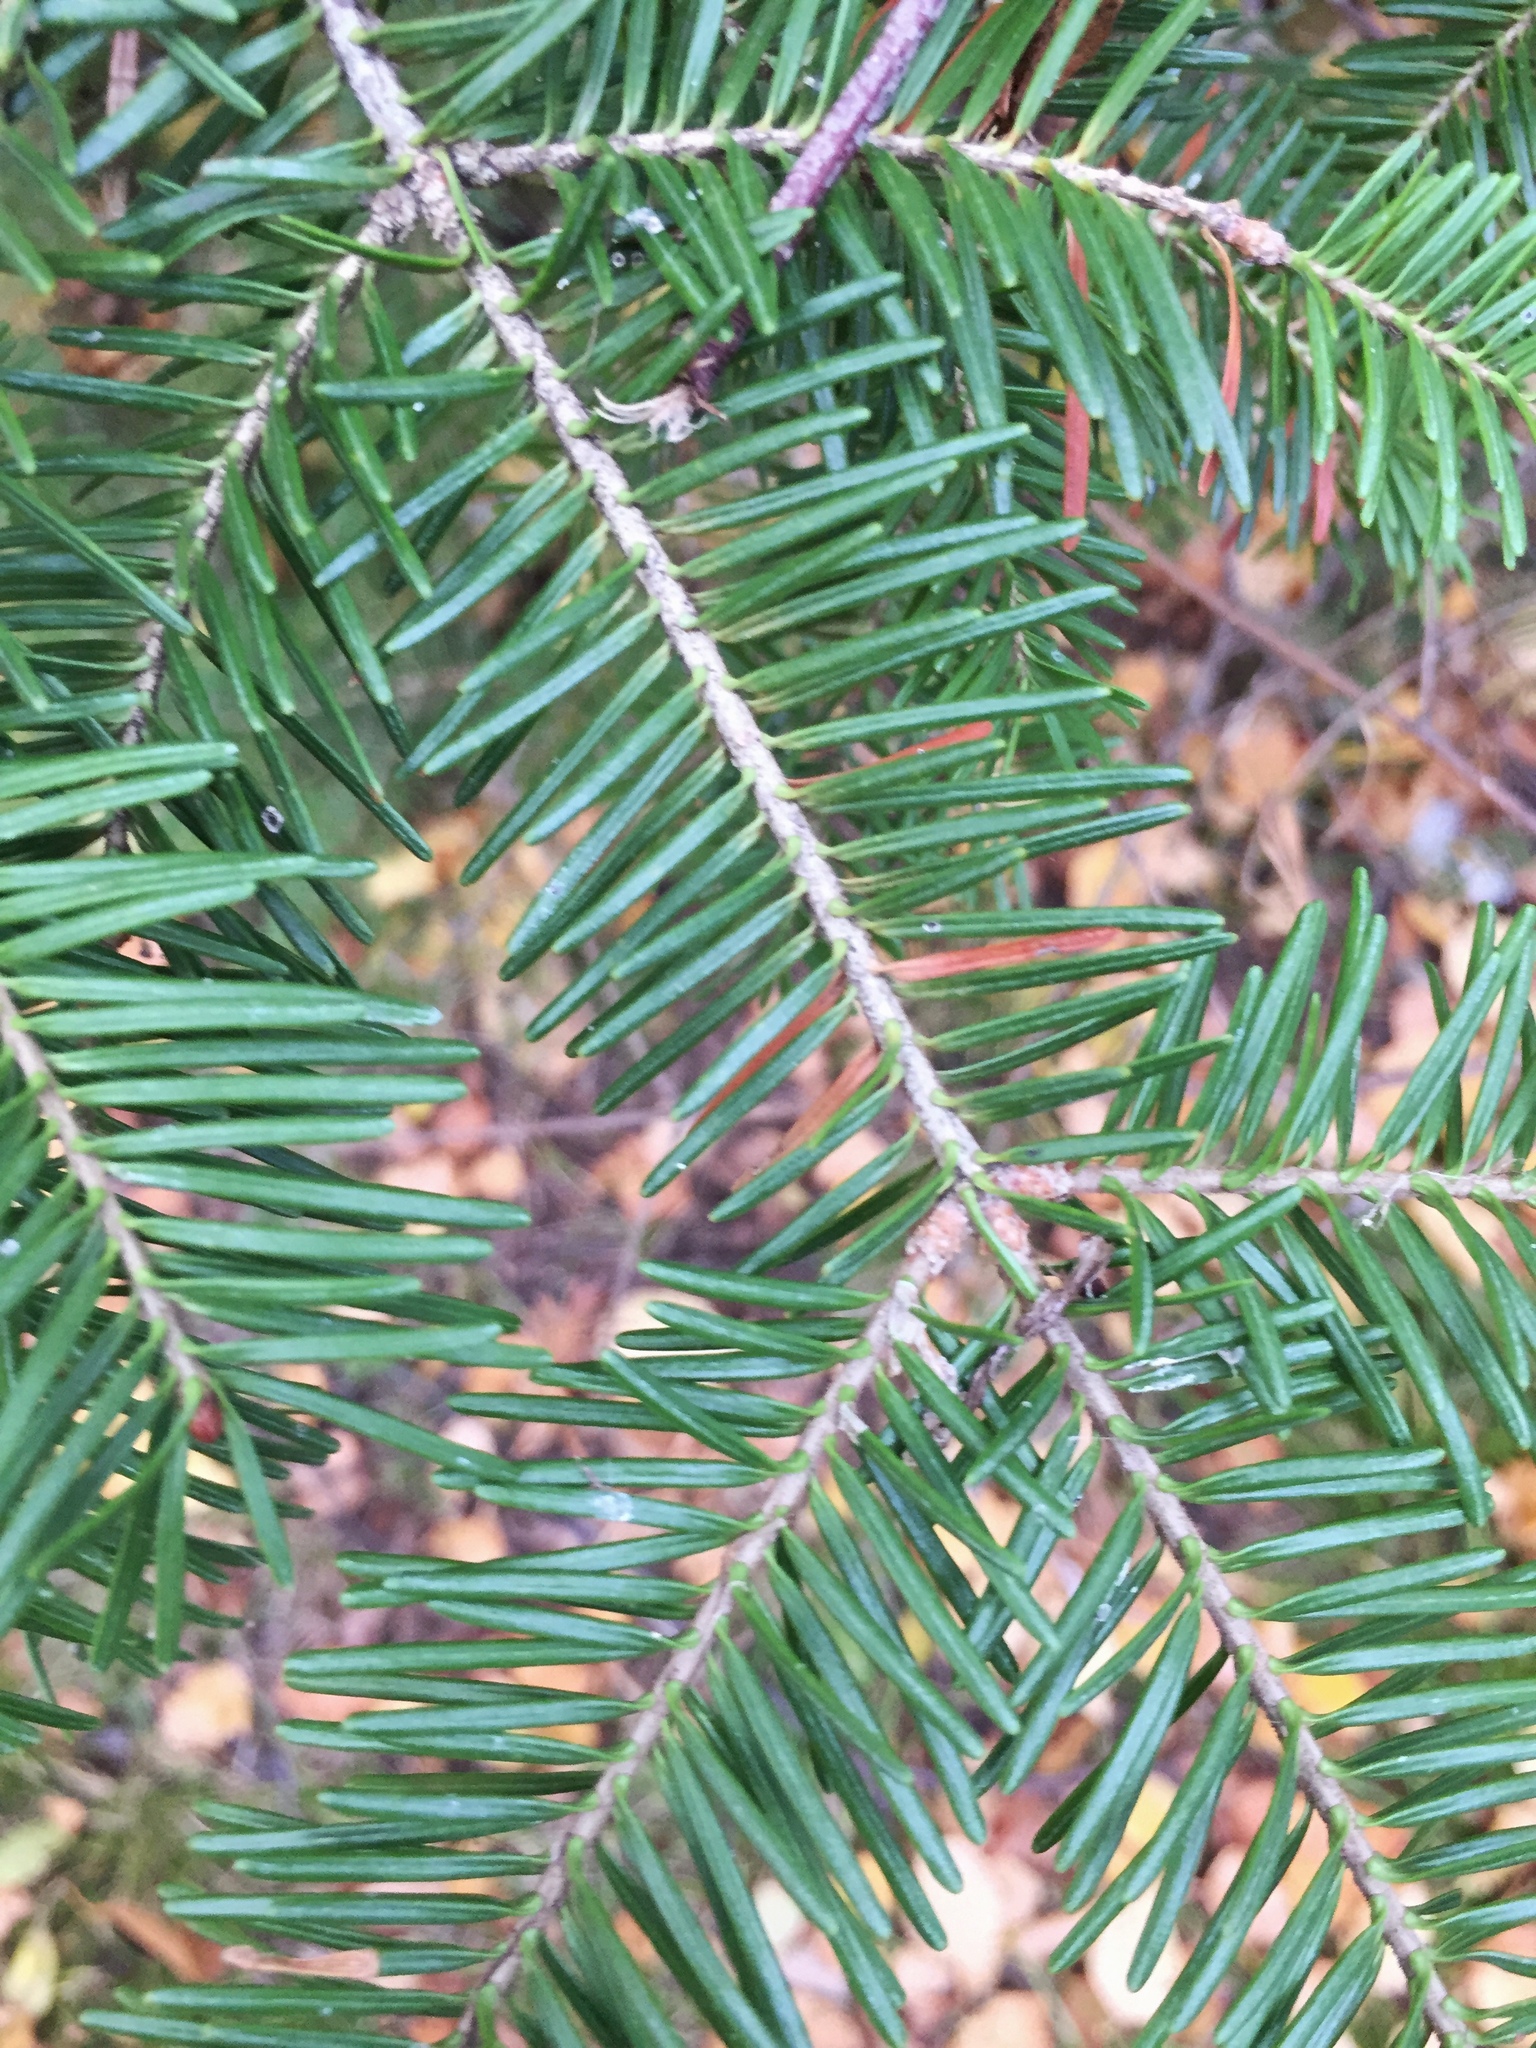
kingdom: Plantae
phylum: Tracheophyta
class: Pinopsida
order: Pinales
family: Pinaceae
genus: Abies
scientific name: Abies balsamea
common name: Balsam fir
